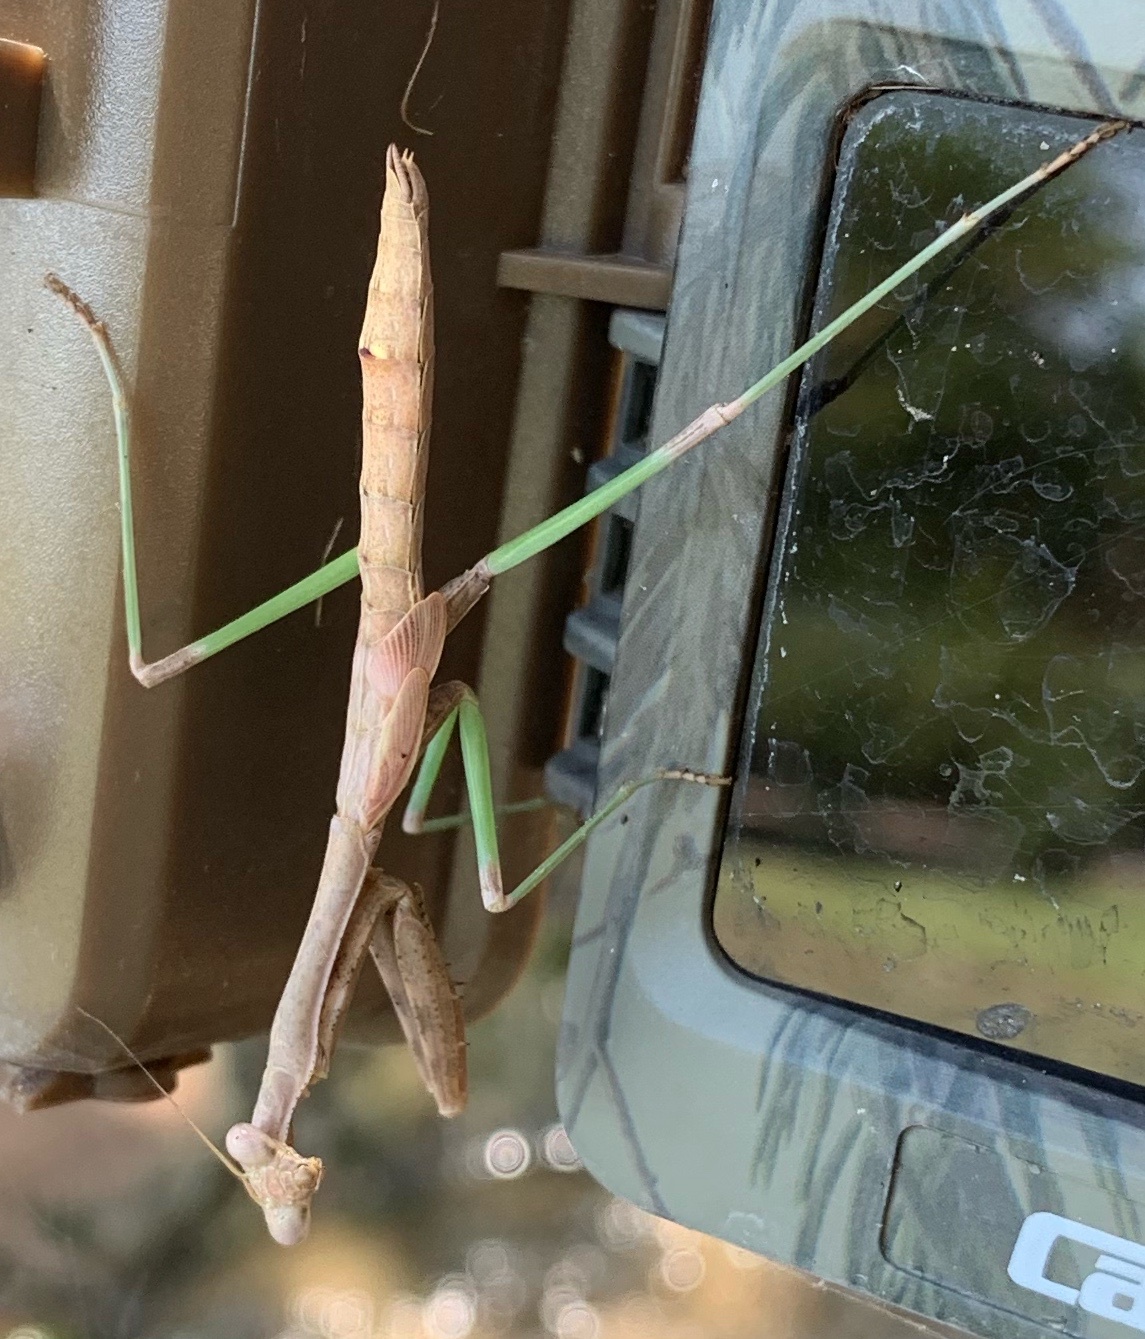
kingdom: Animalia
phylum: Arthropoda
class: Insecta
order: Mantodea
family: Mantidae
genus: Stagmomantis
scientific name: Stagmomantis carolina
